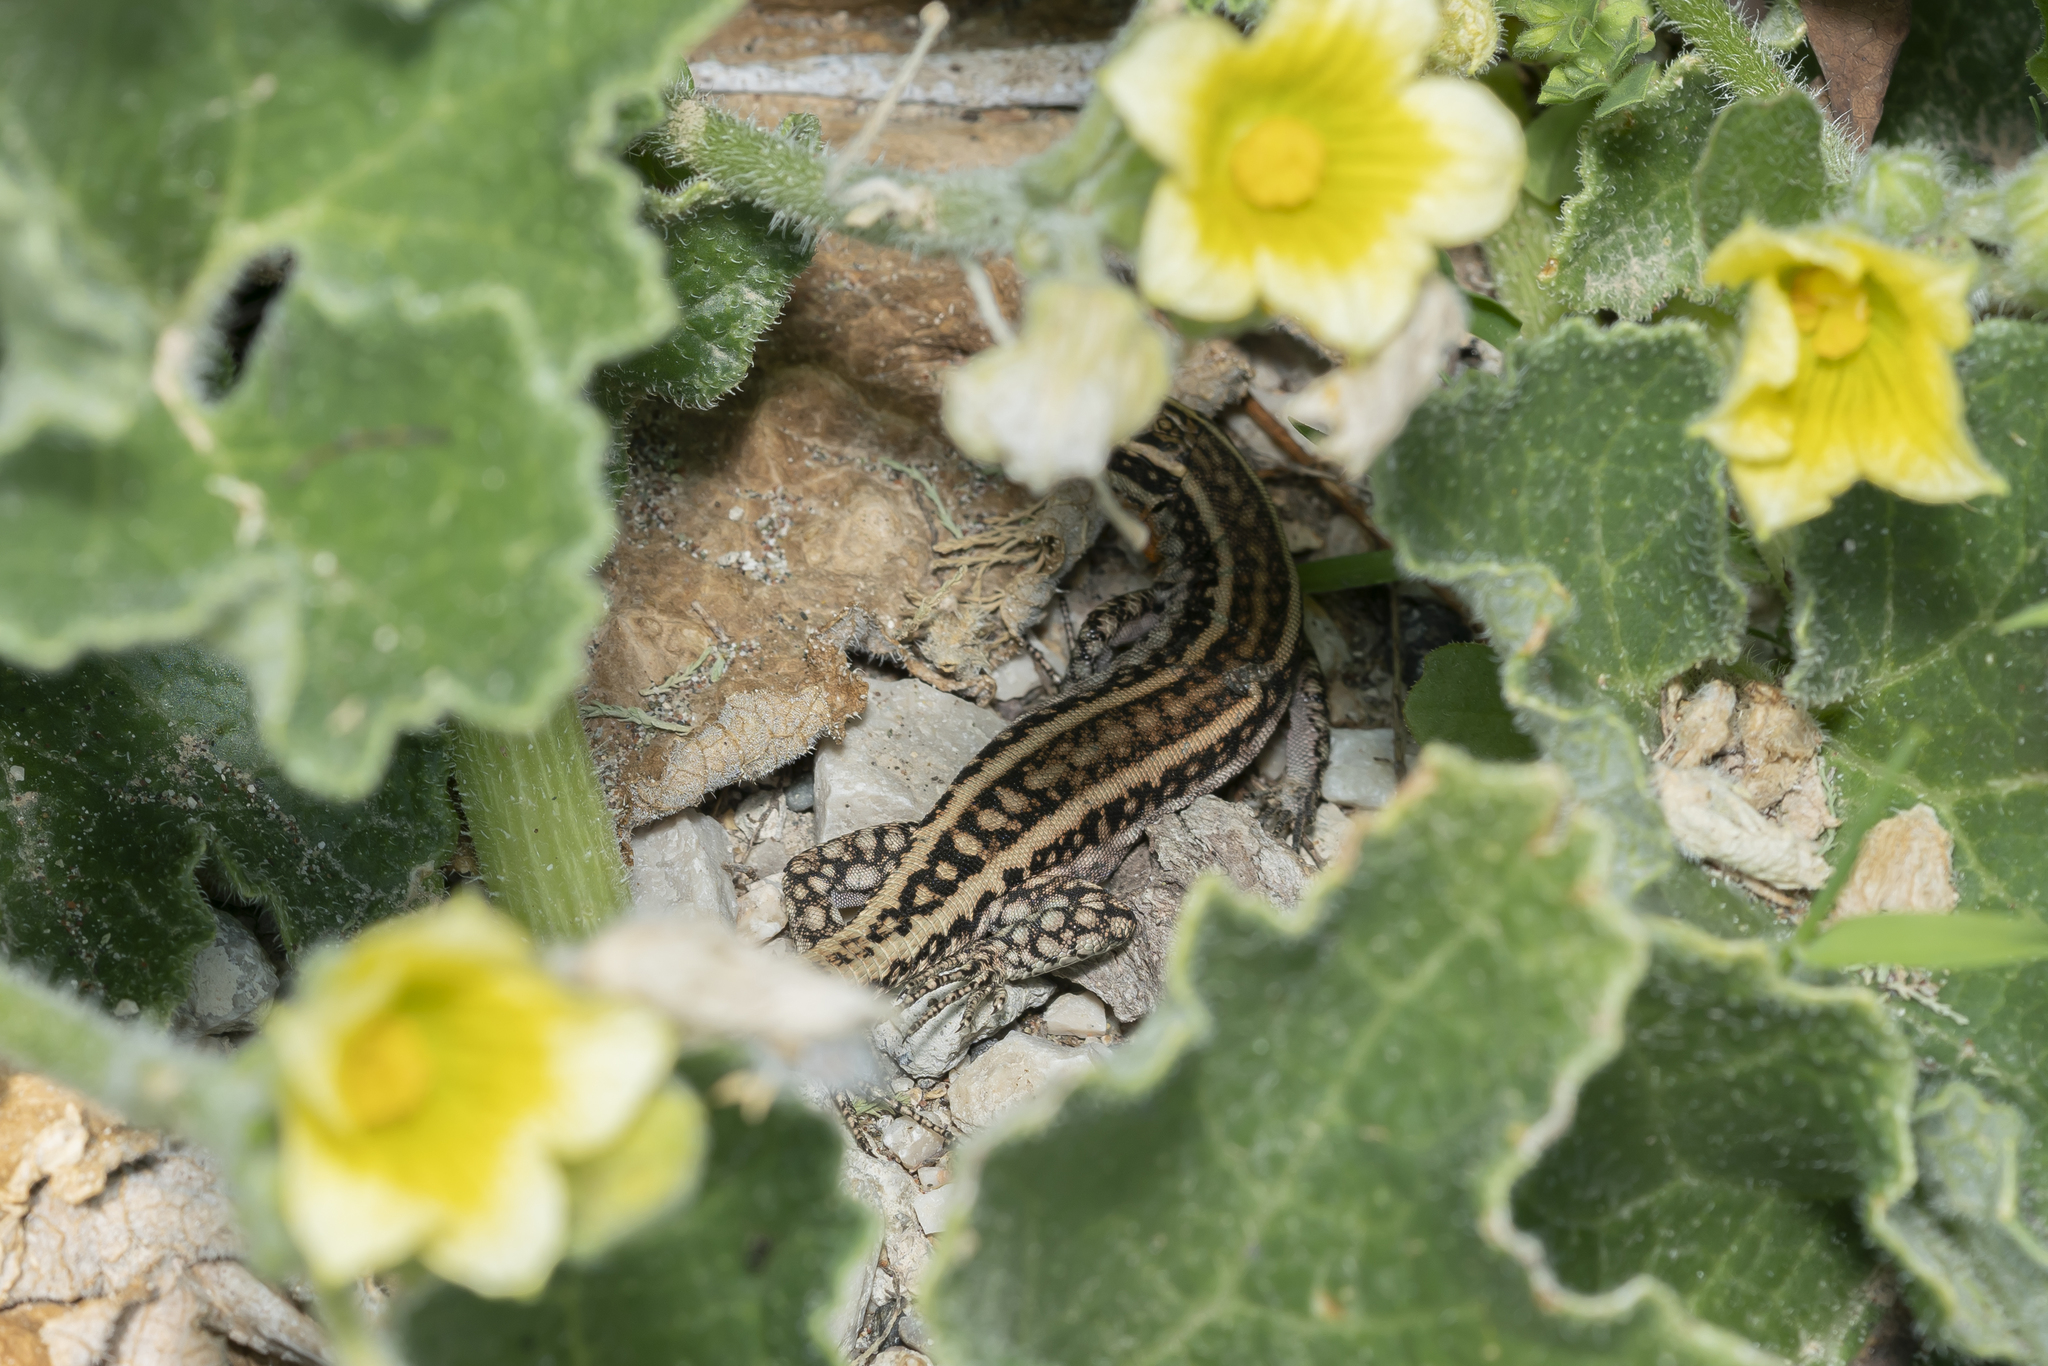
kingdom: Animalia
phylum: Chordata
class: Squamata
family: Lacertidae
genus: Anatololacerta
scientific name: Anatololacerta pelasgiana
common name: Pelasgian rock lizard
